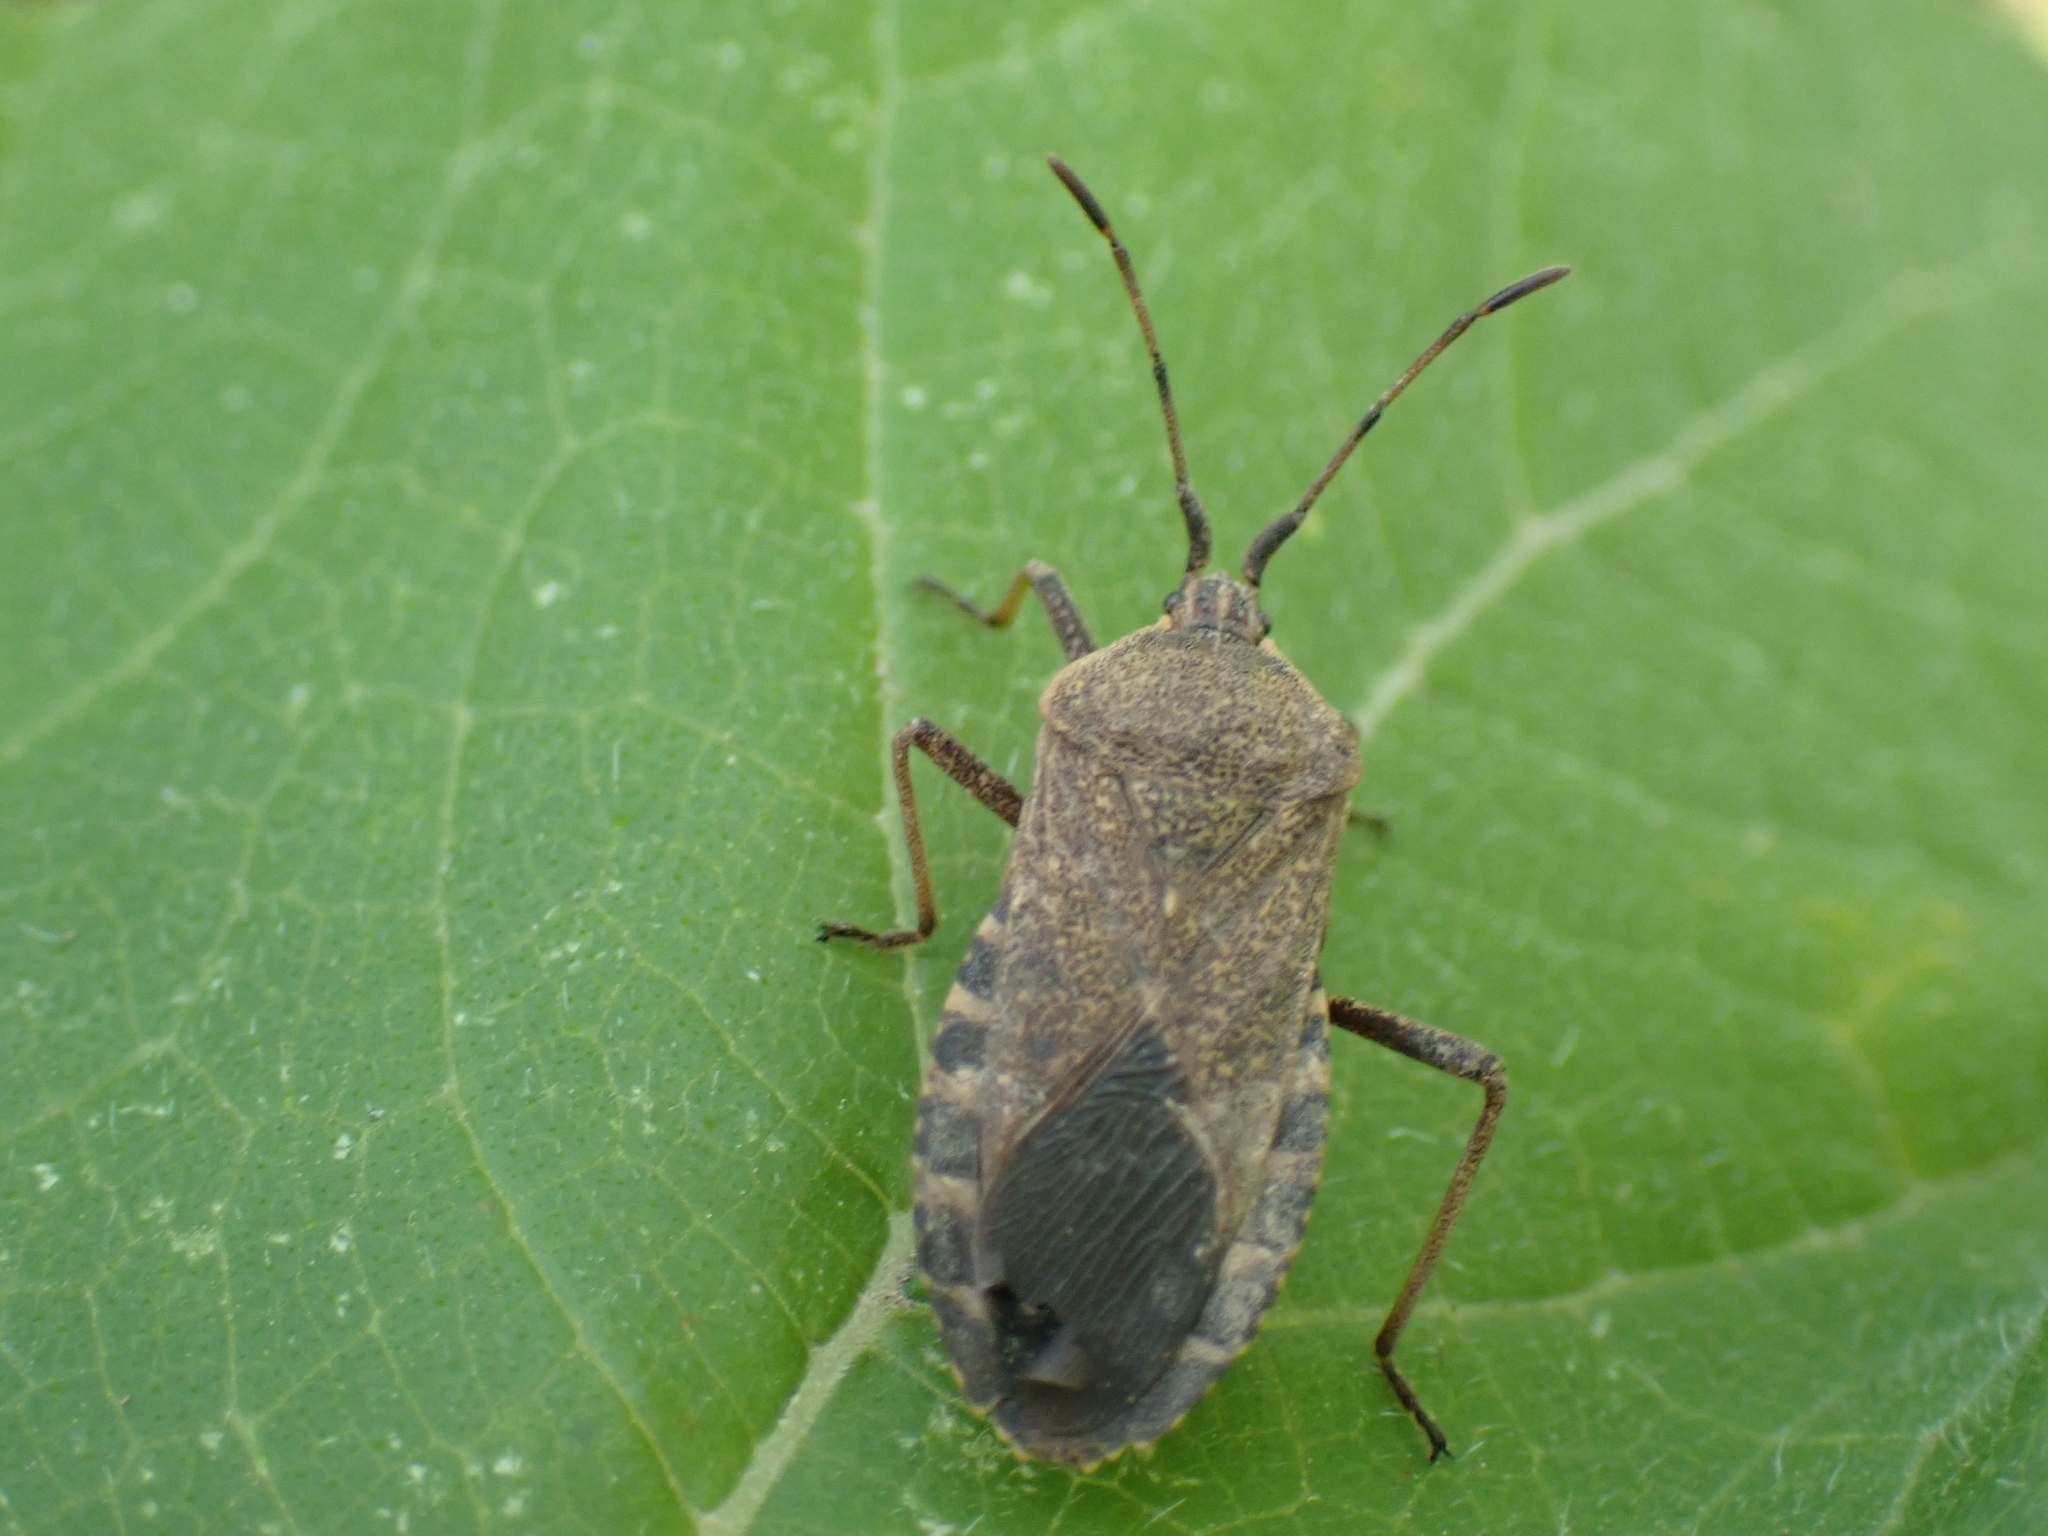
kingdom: Animalia
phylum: Arthropoda
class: Insecta
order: Hemiptera
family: Coreidae
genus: Anasa
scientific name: Anasa tristis
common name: Squash bug
